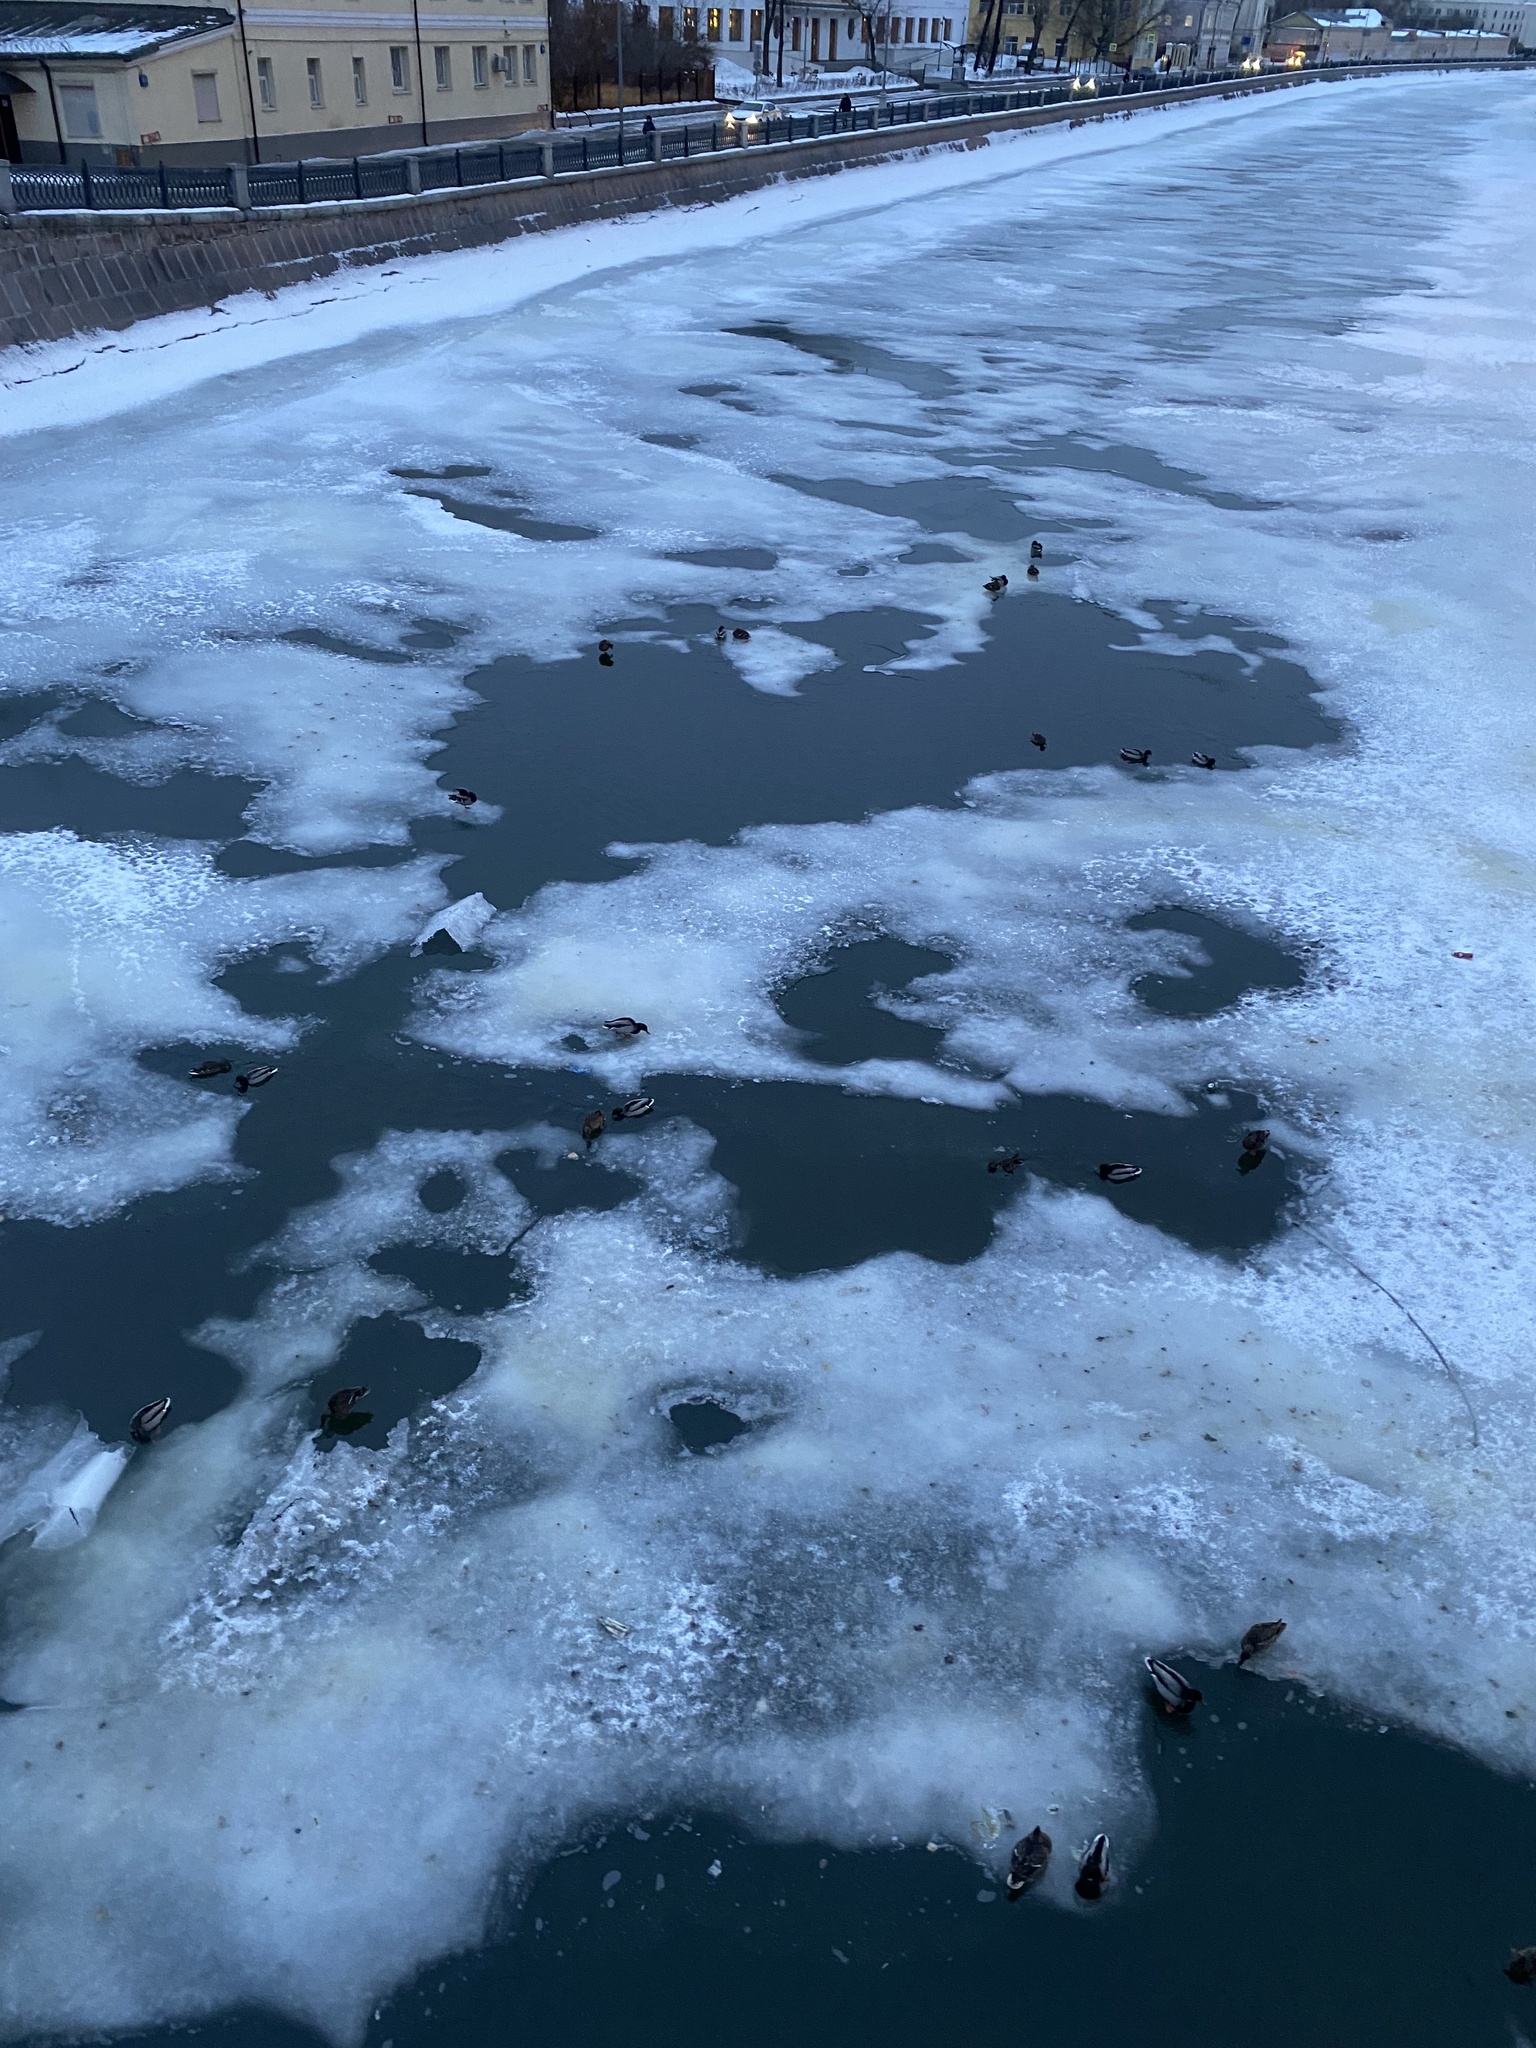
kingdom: Animalia
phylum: Chordata
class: Aves
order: Anseriformes
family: Anatidae
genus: Anas
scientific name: Anas platyrhynchos
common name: Mallard
